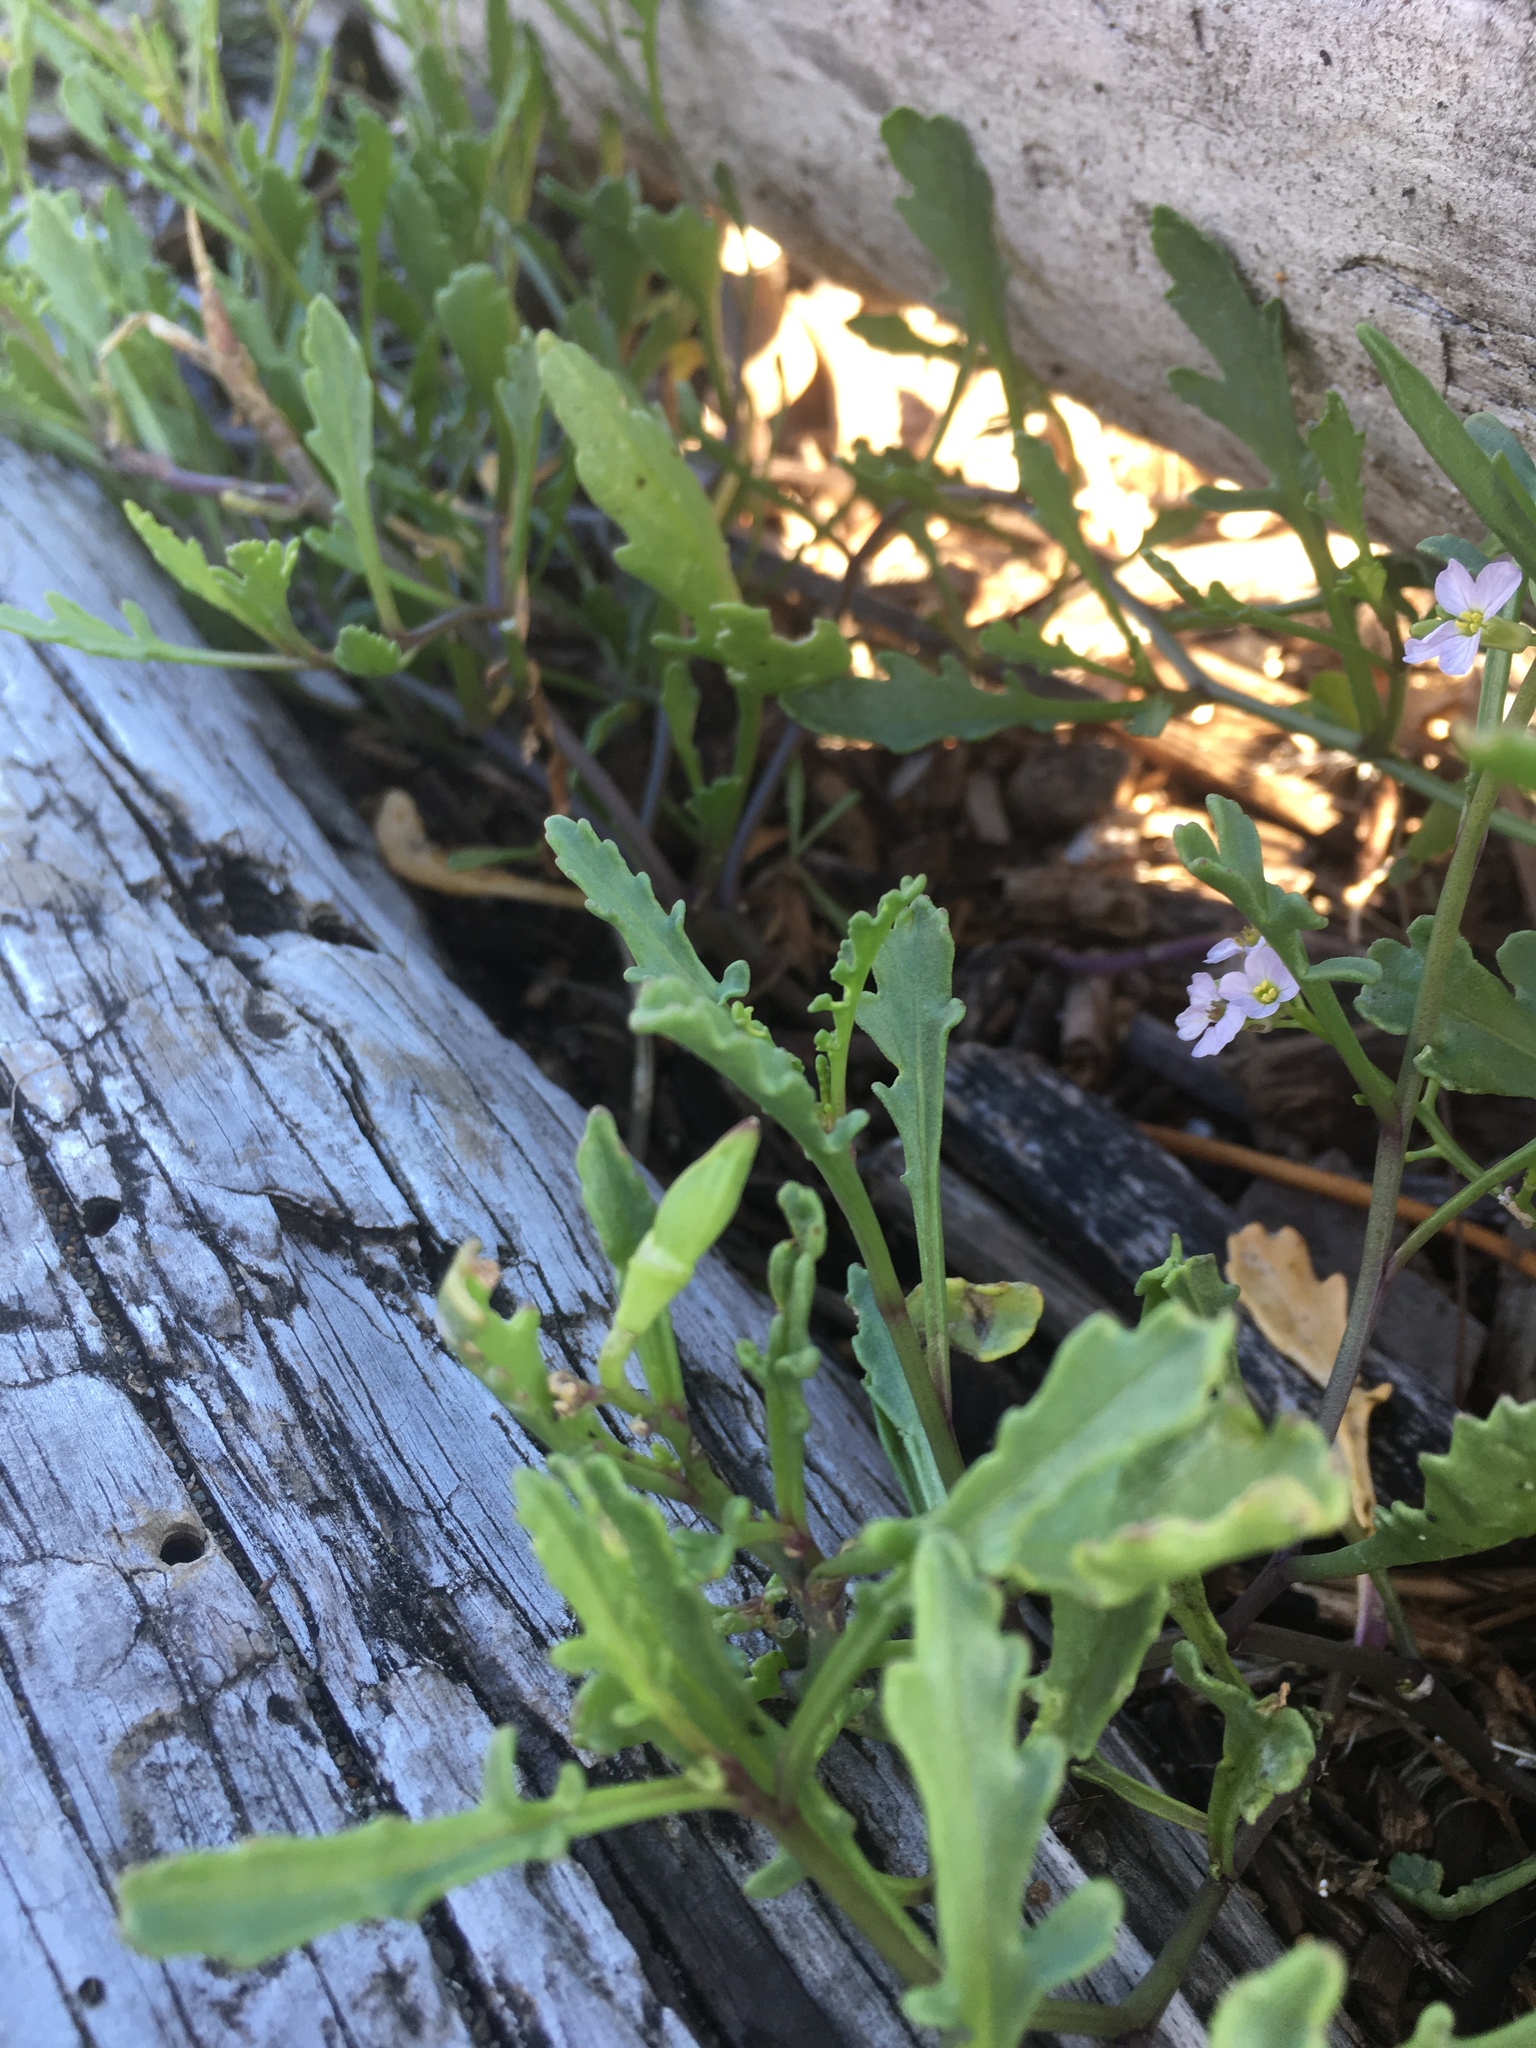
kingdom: Plantae
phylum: Tracheophyta
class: Magnoliopsida
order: Brassicales
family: Brassicaceae
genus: Cakile
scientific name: Cakile maritima
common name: Sea rocket
